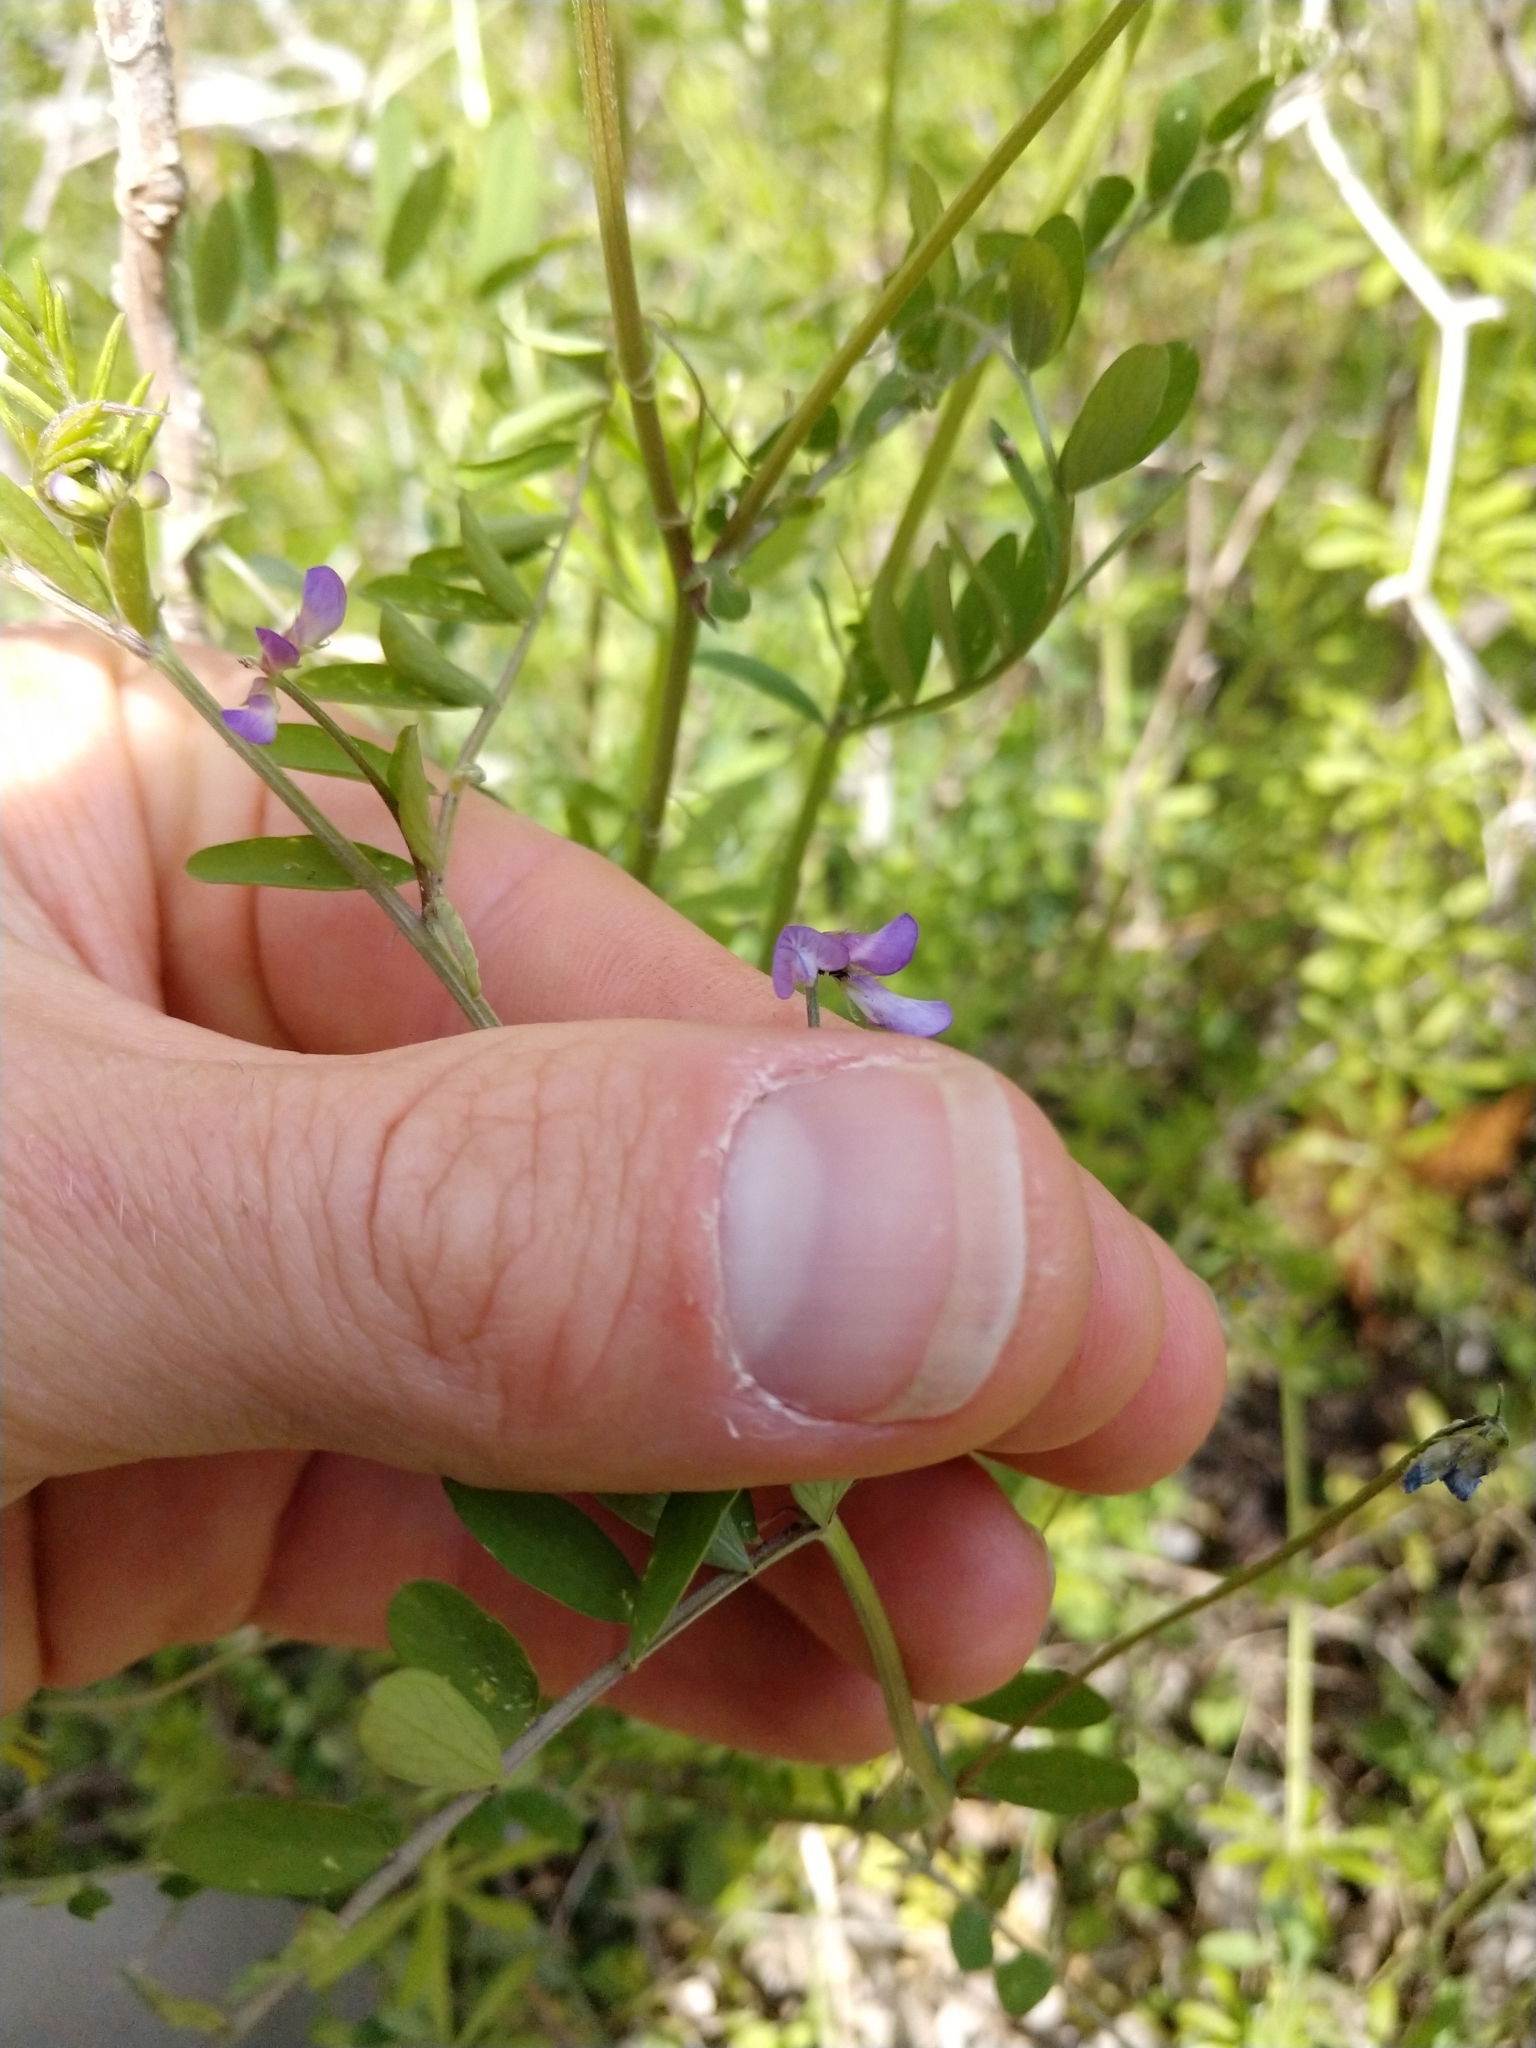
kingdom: Plantae
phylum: Tracheophyta
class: Magnoliopsida
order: Fabales
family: Fabaceae
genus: Vicia
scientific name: Vicia ludoviciana
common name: Louisiana vetch
